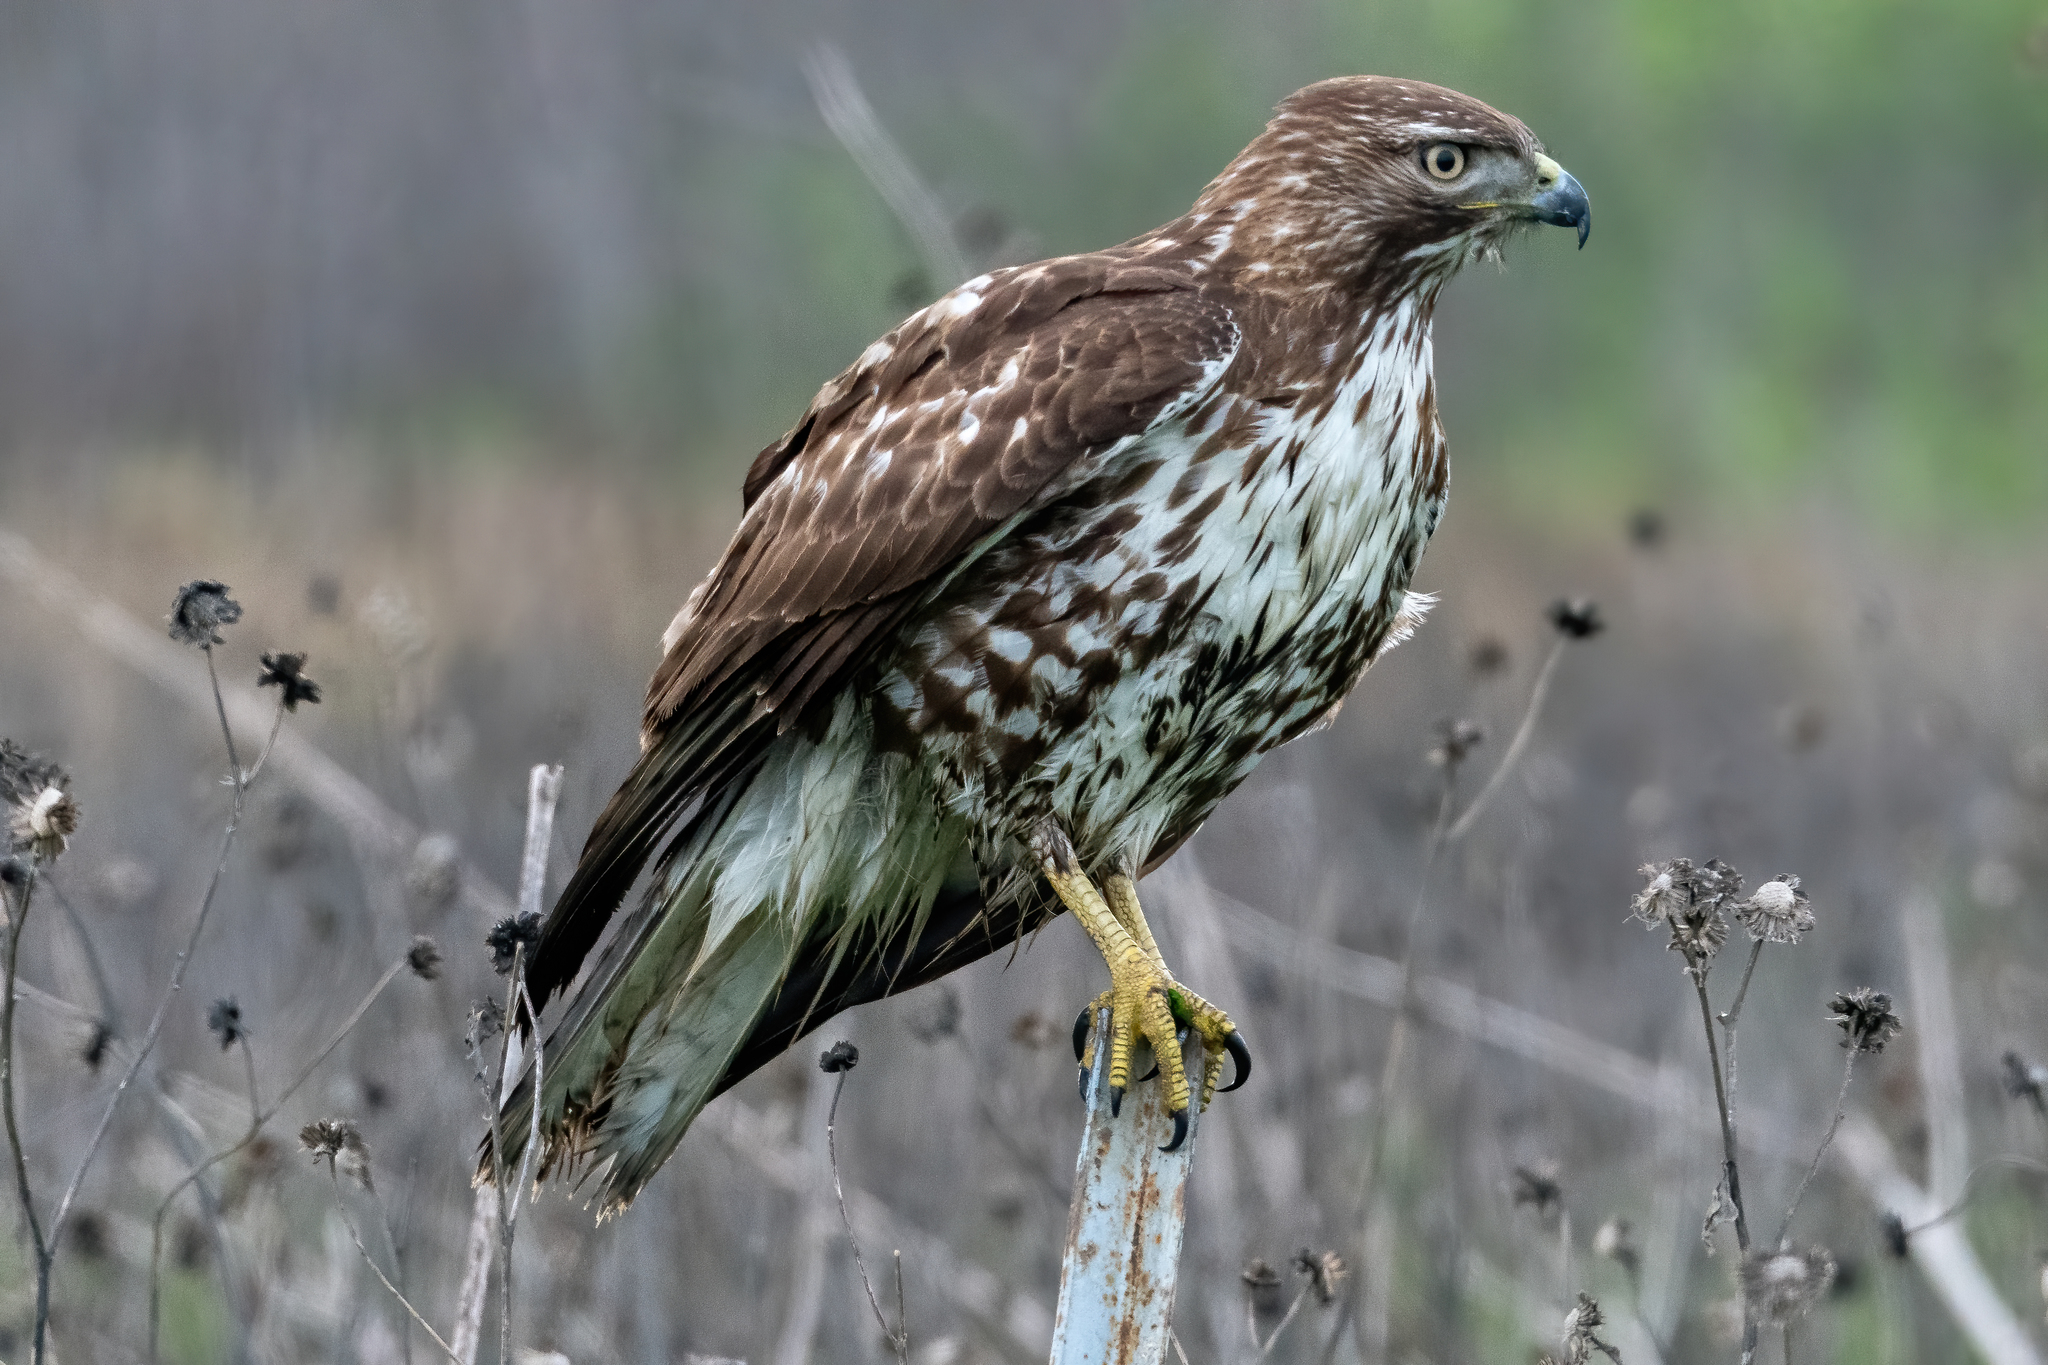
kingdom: Animalia
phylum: Chordata
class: Aves
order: Accipitriformes
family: Accipitridae
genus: Buteo
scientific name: Buteo jamaicensis
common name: Red-tailed hawk
